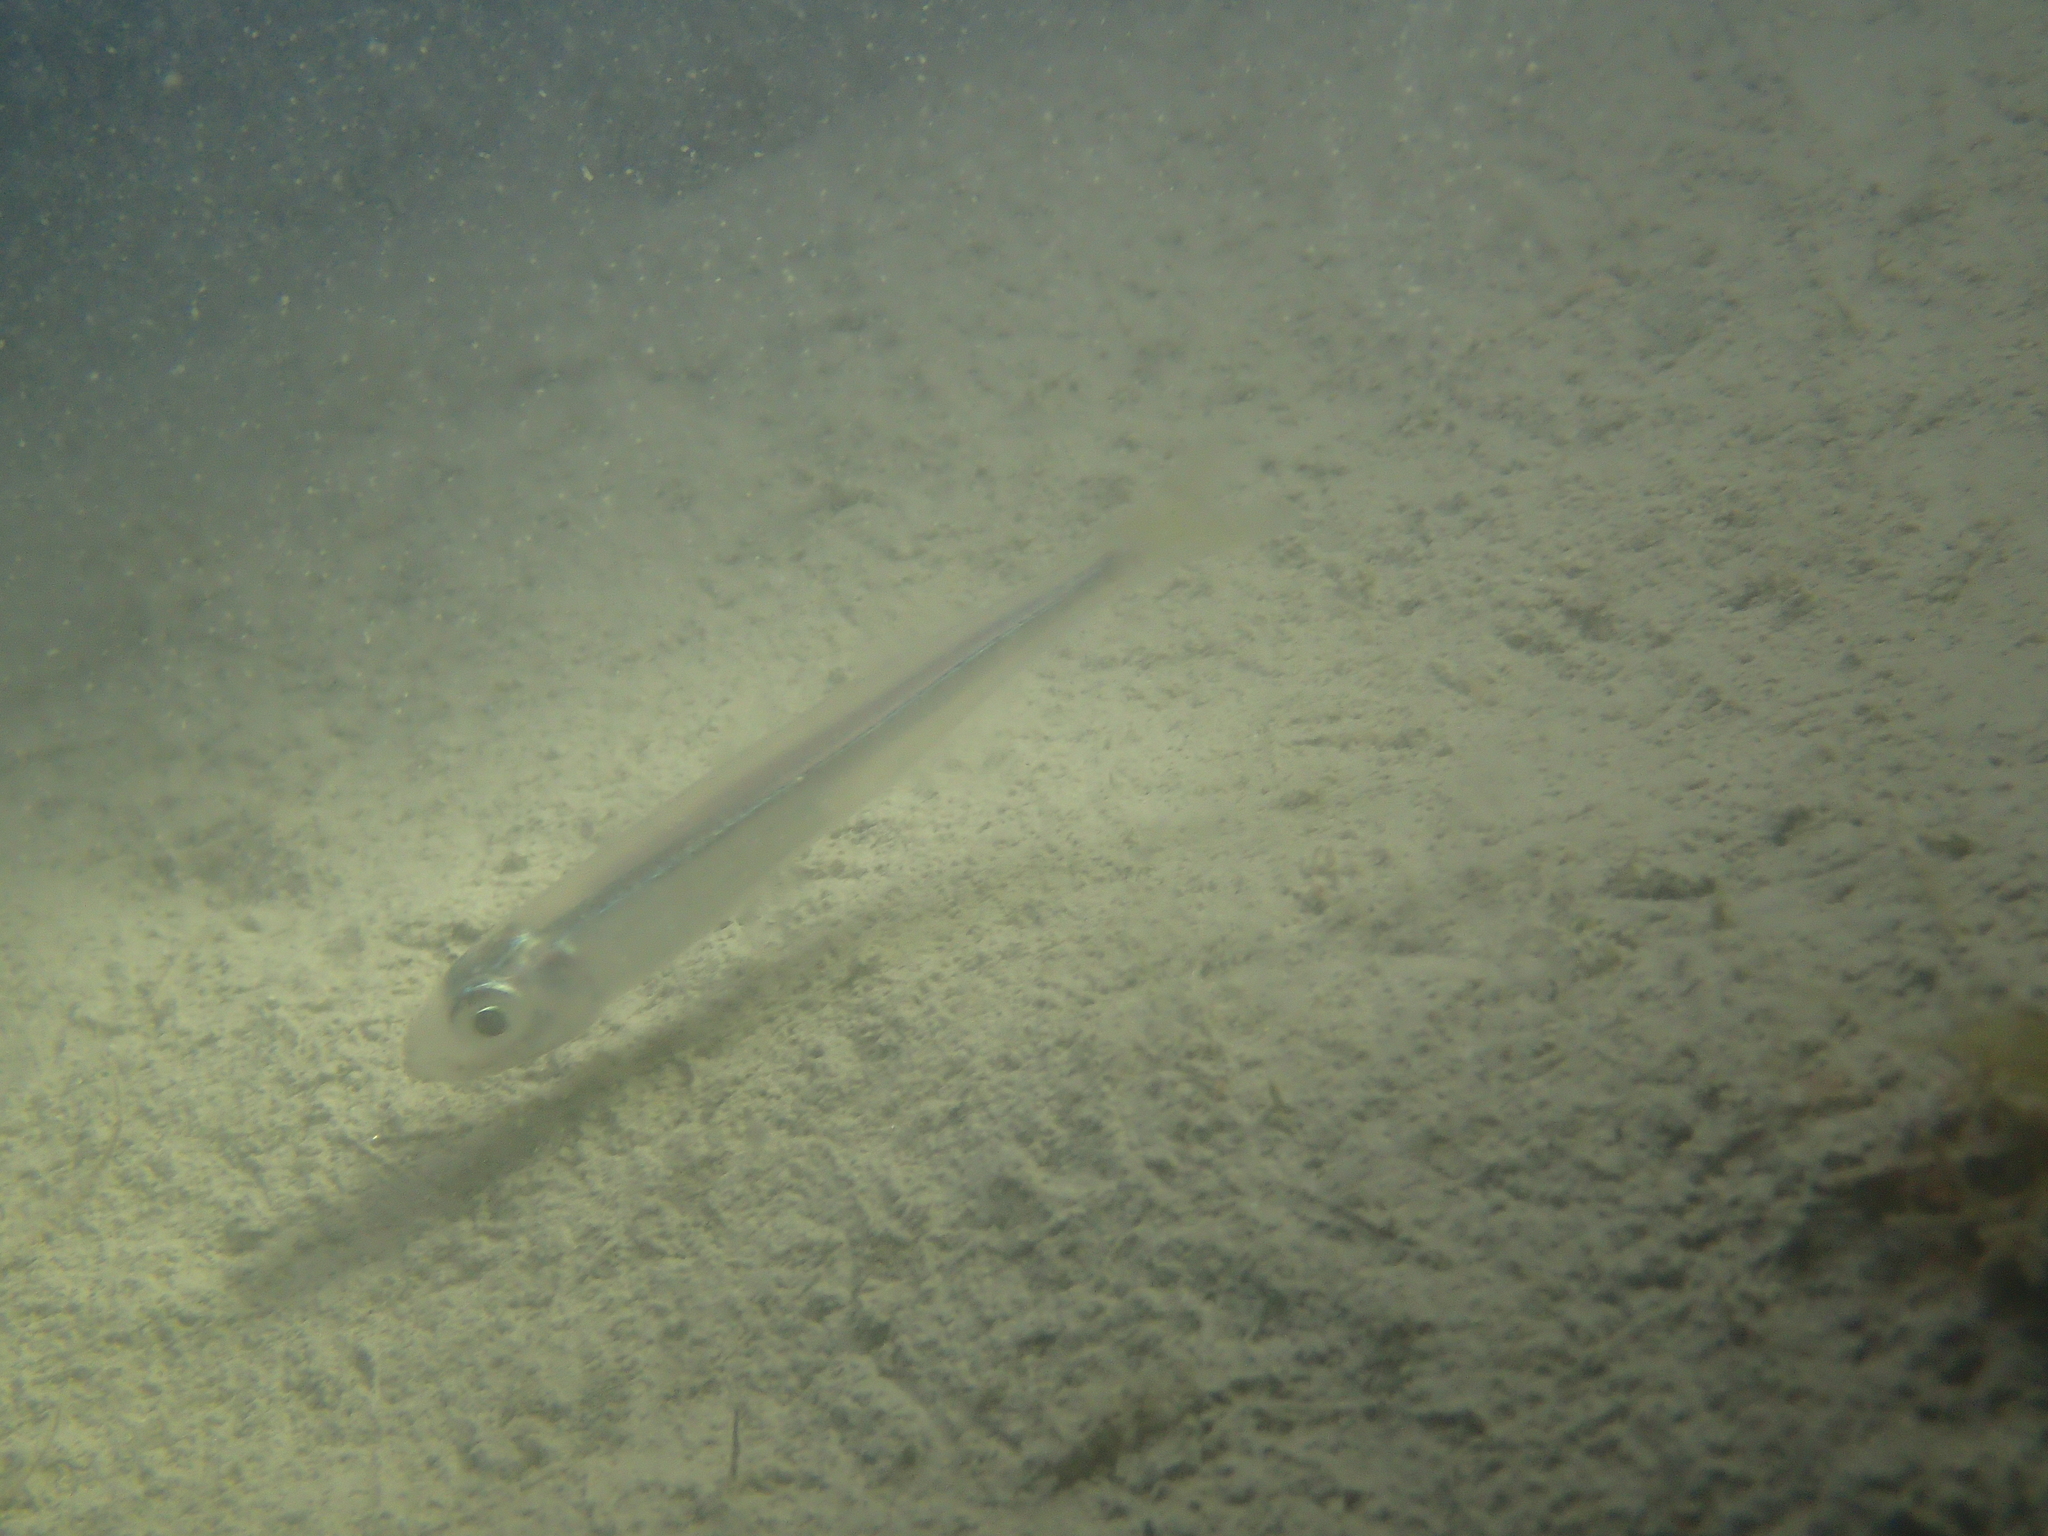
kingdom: Animalia
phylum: Chordata
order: Atheriniformes
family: Atherinidae
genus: Atherina
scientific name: Atherina hepsetus
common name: Mediterranean sand smelt
